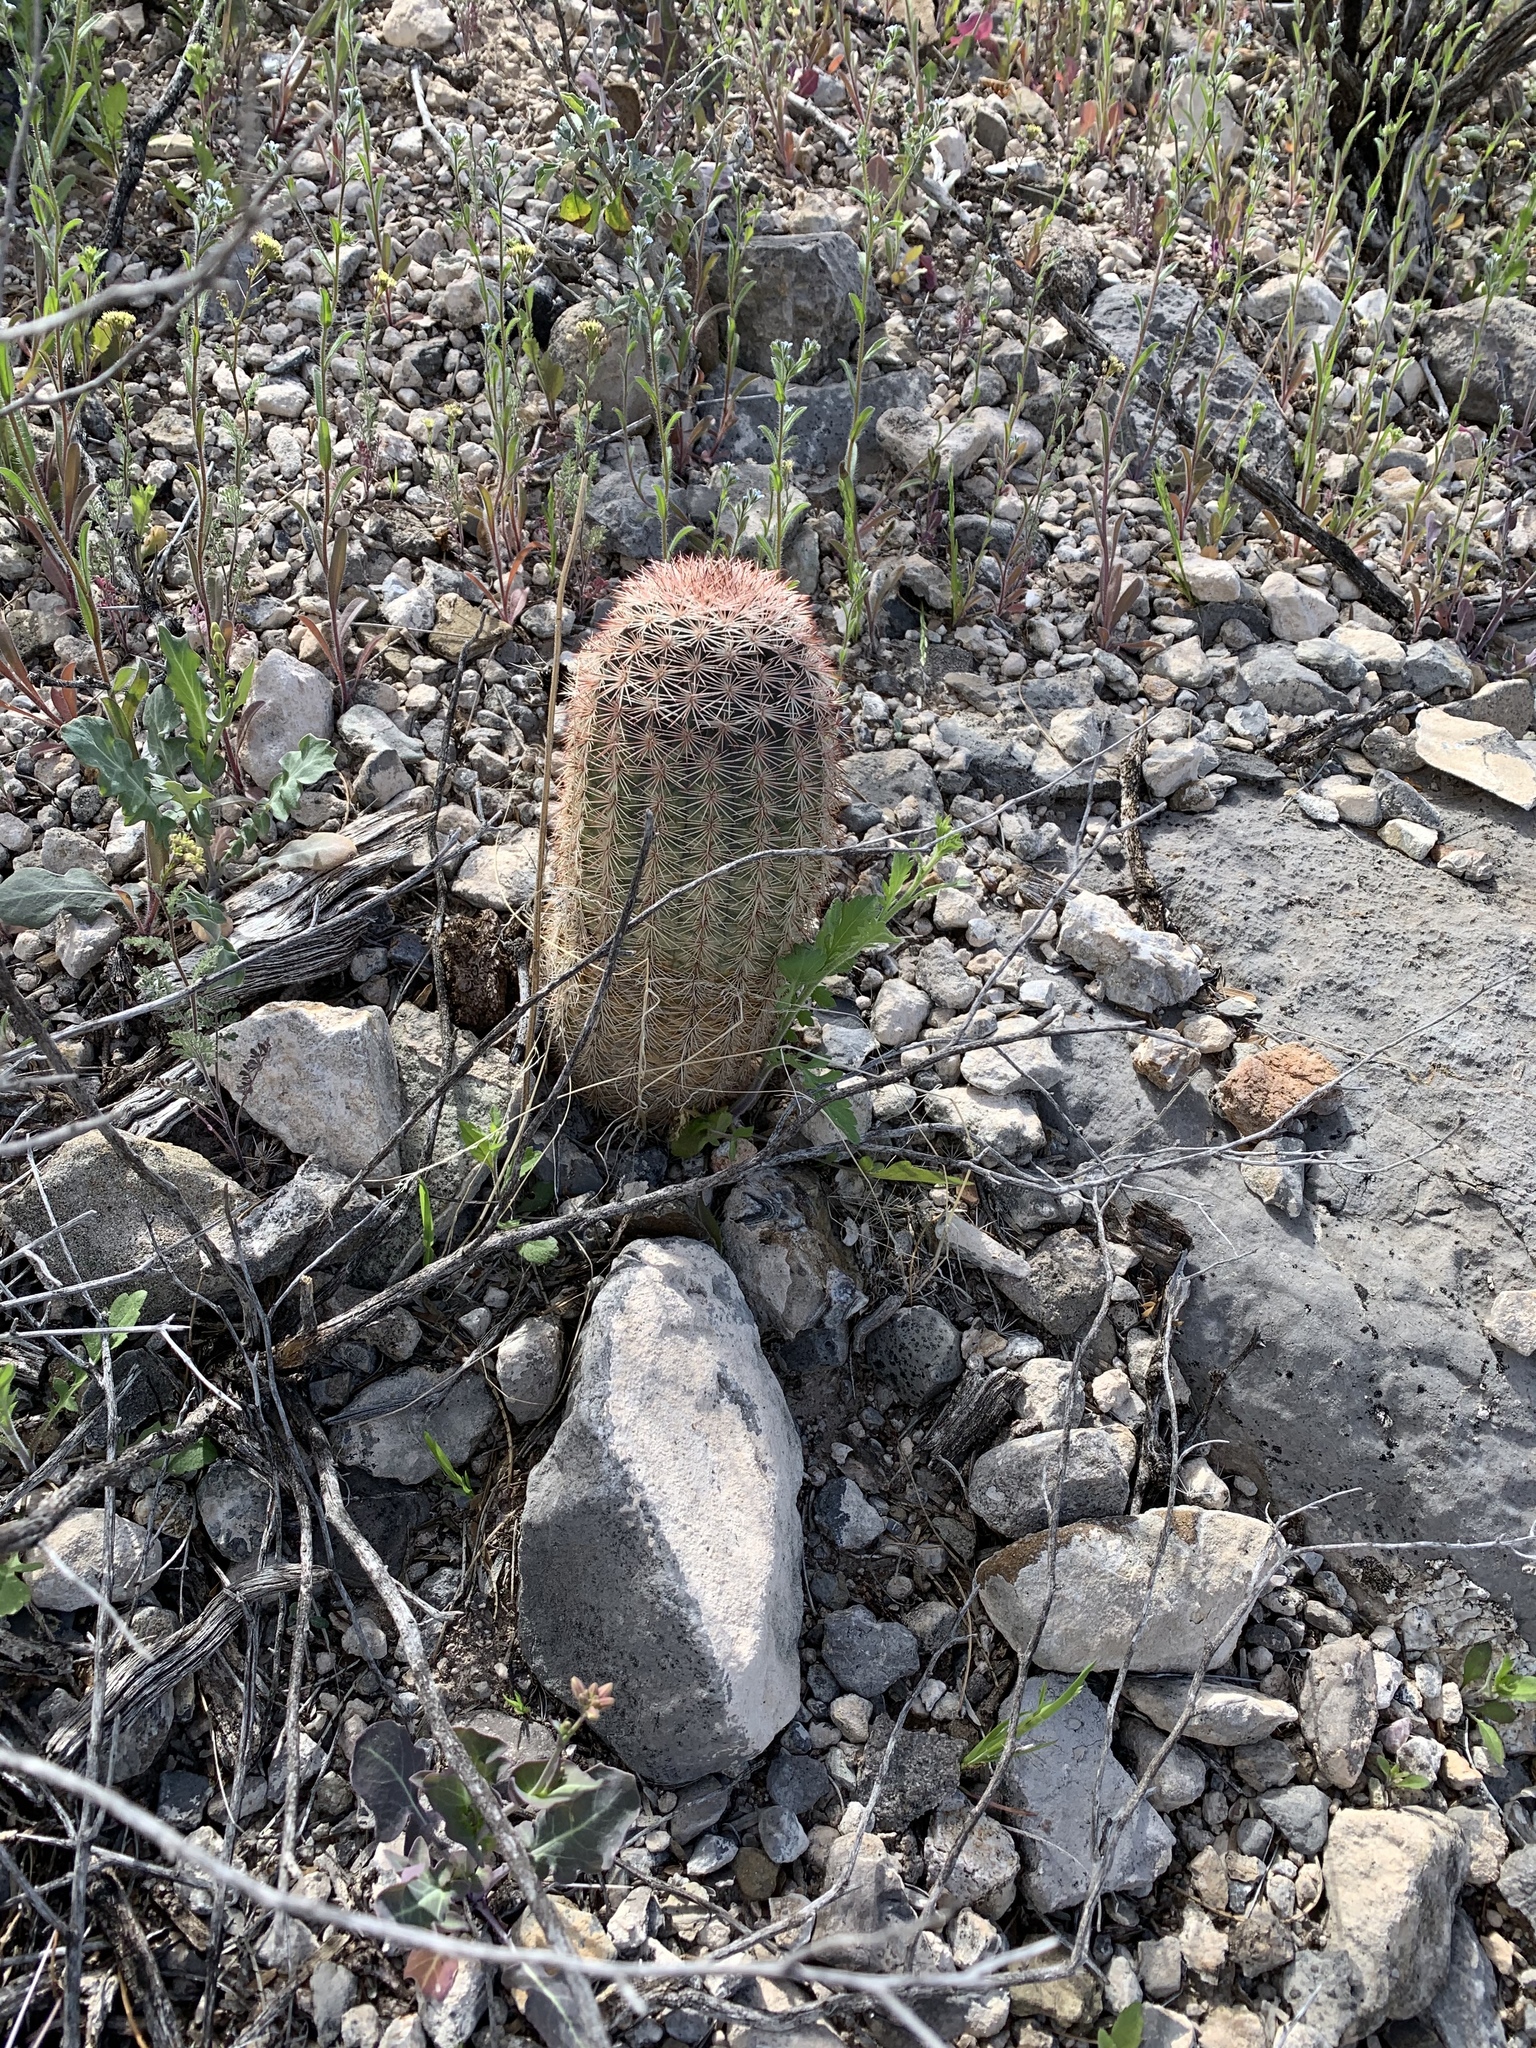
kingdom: Plantae
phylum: Tracheophyta
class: Magnoliopsida
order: Caryophyllales
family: Cactaceae
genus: Echinocereus
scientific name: Echinocereus dasyacanthus
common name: Spiny hedgehog cactus
